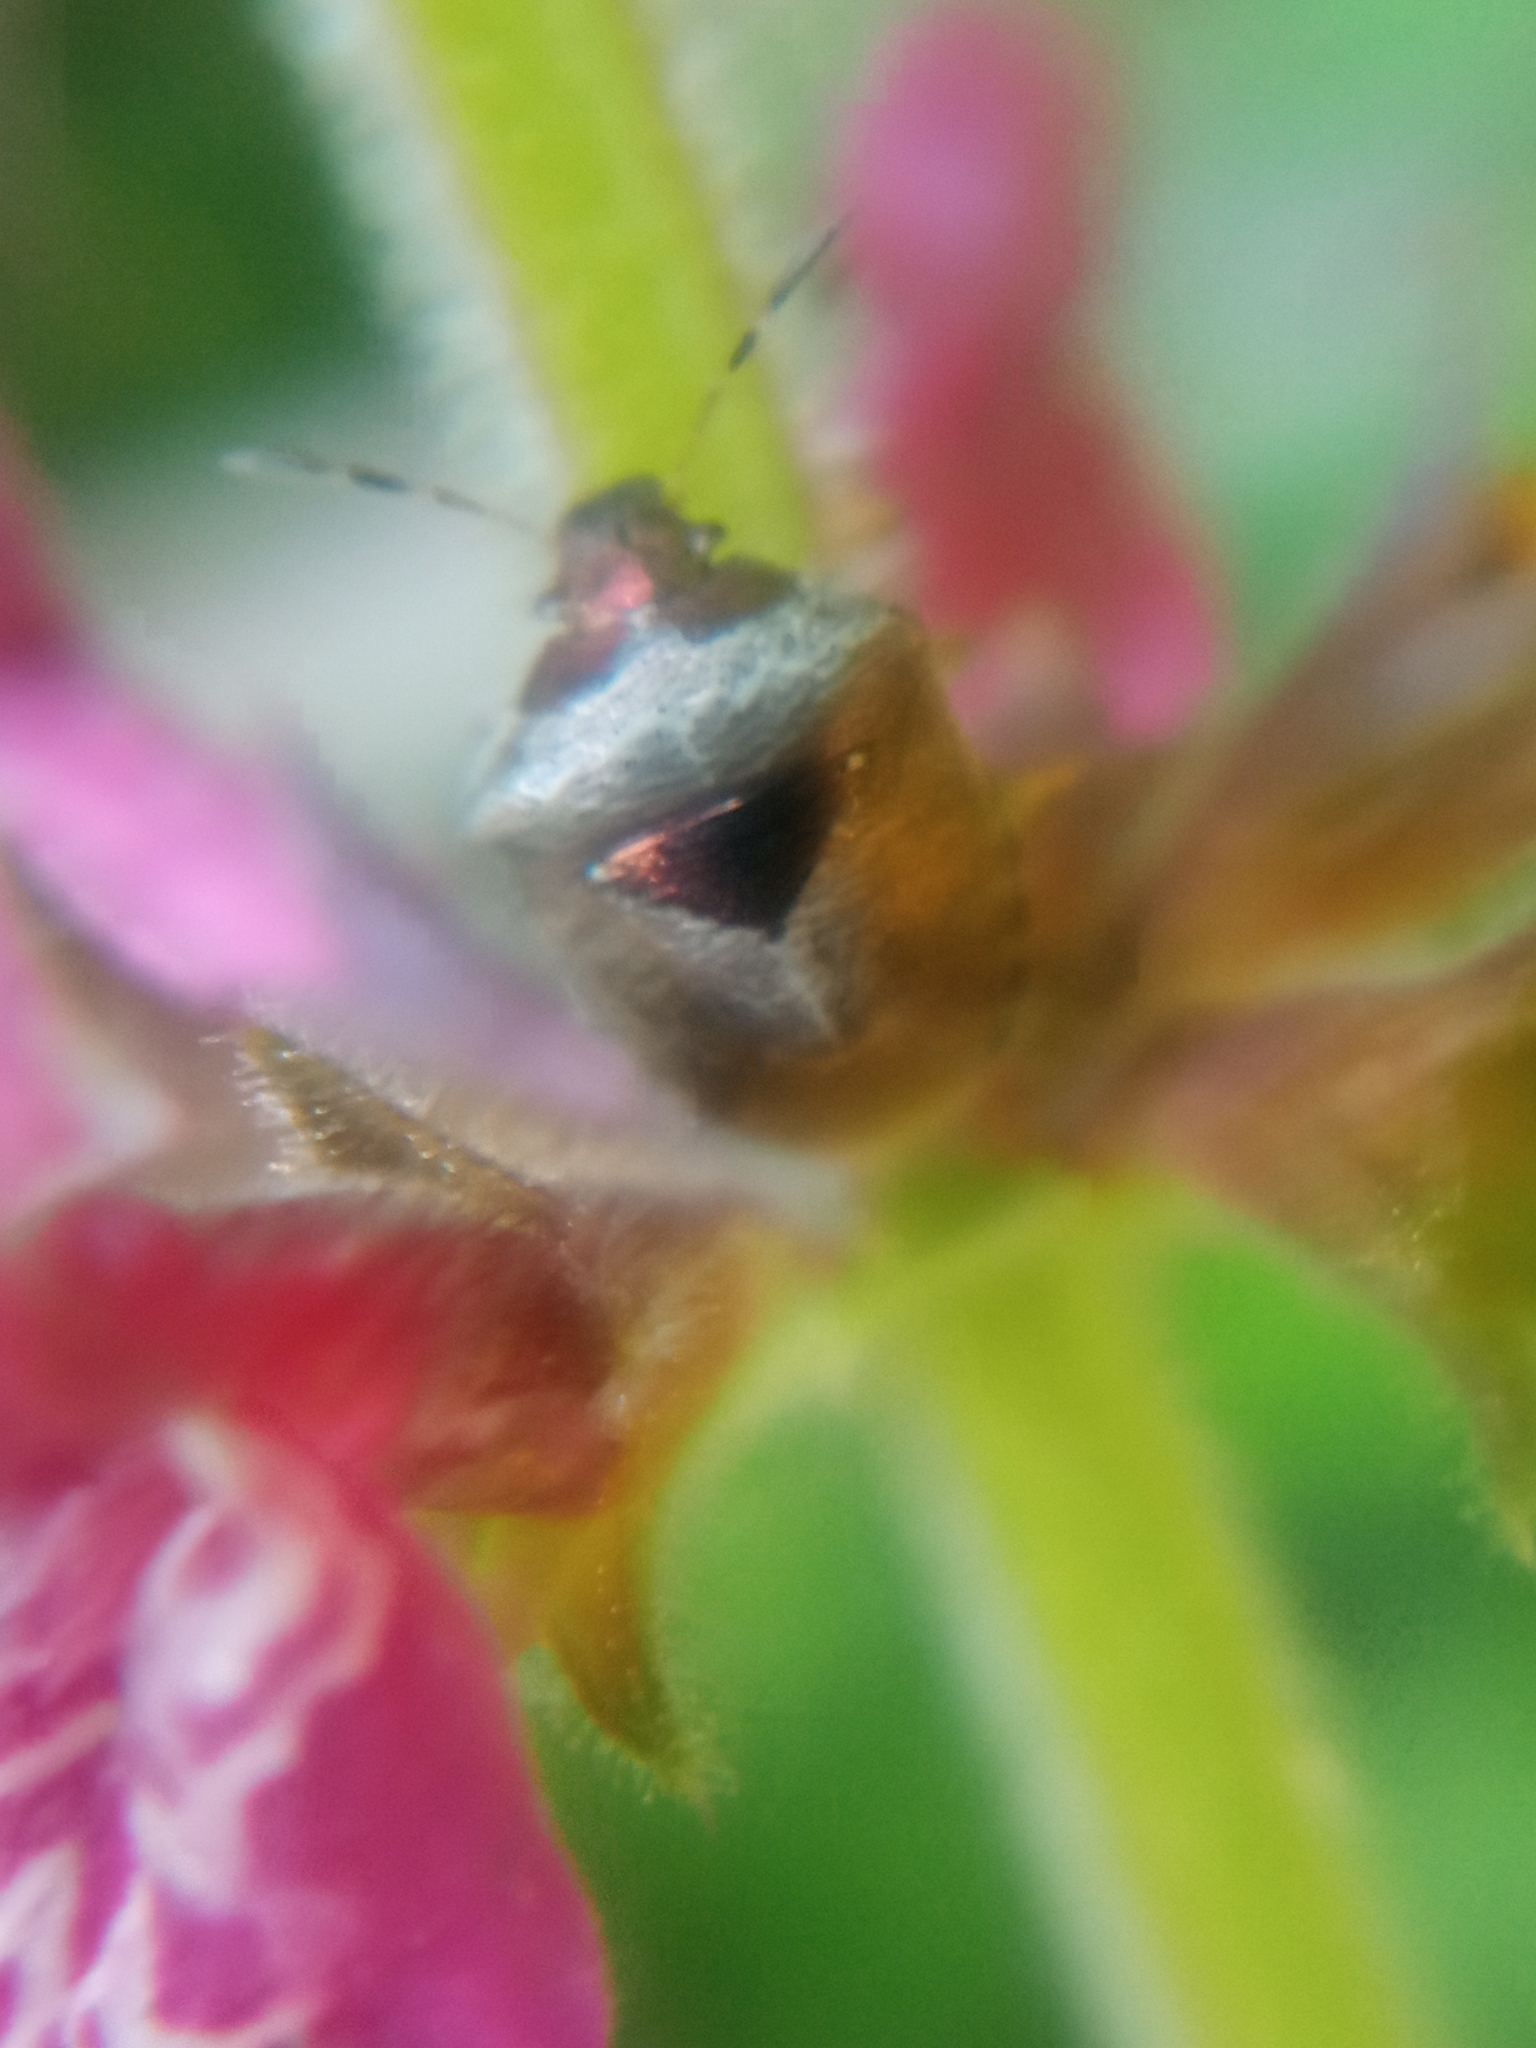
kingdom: Animalia
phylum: Arthropoda
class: Insecta
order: Hemiptera
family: Pentatomidae
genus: Eysarcoris
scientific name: Eysarcoris venustissimus
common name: Woundwort shieldbug
